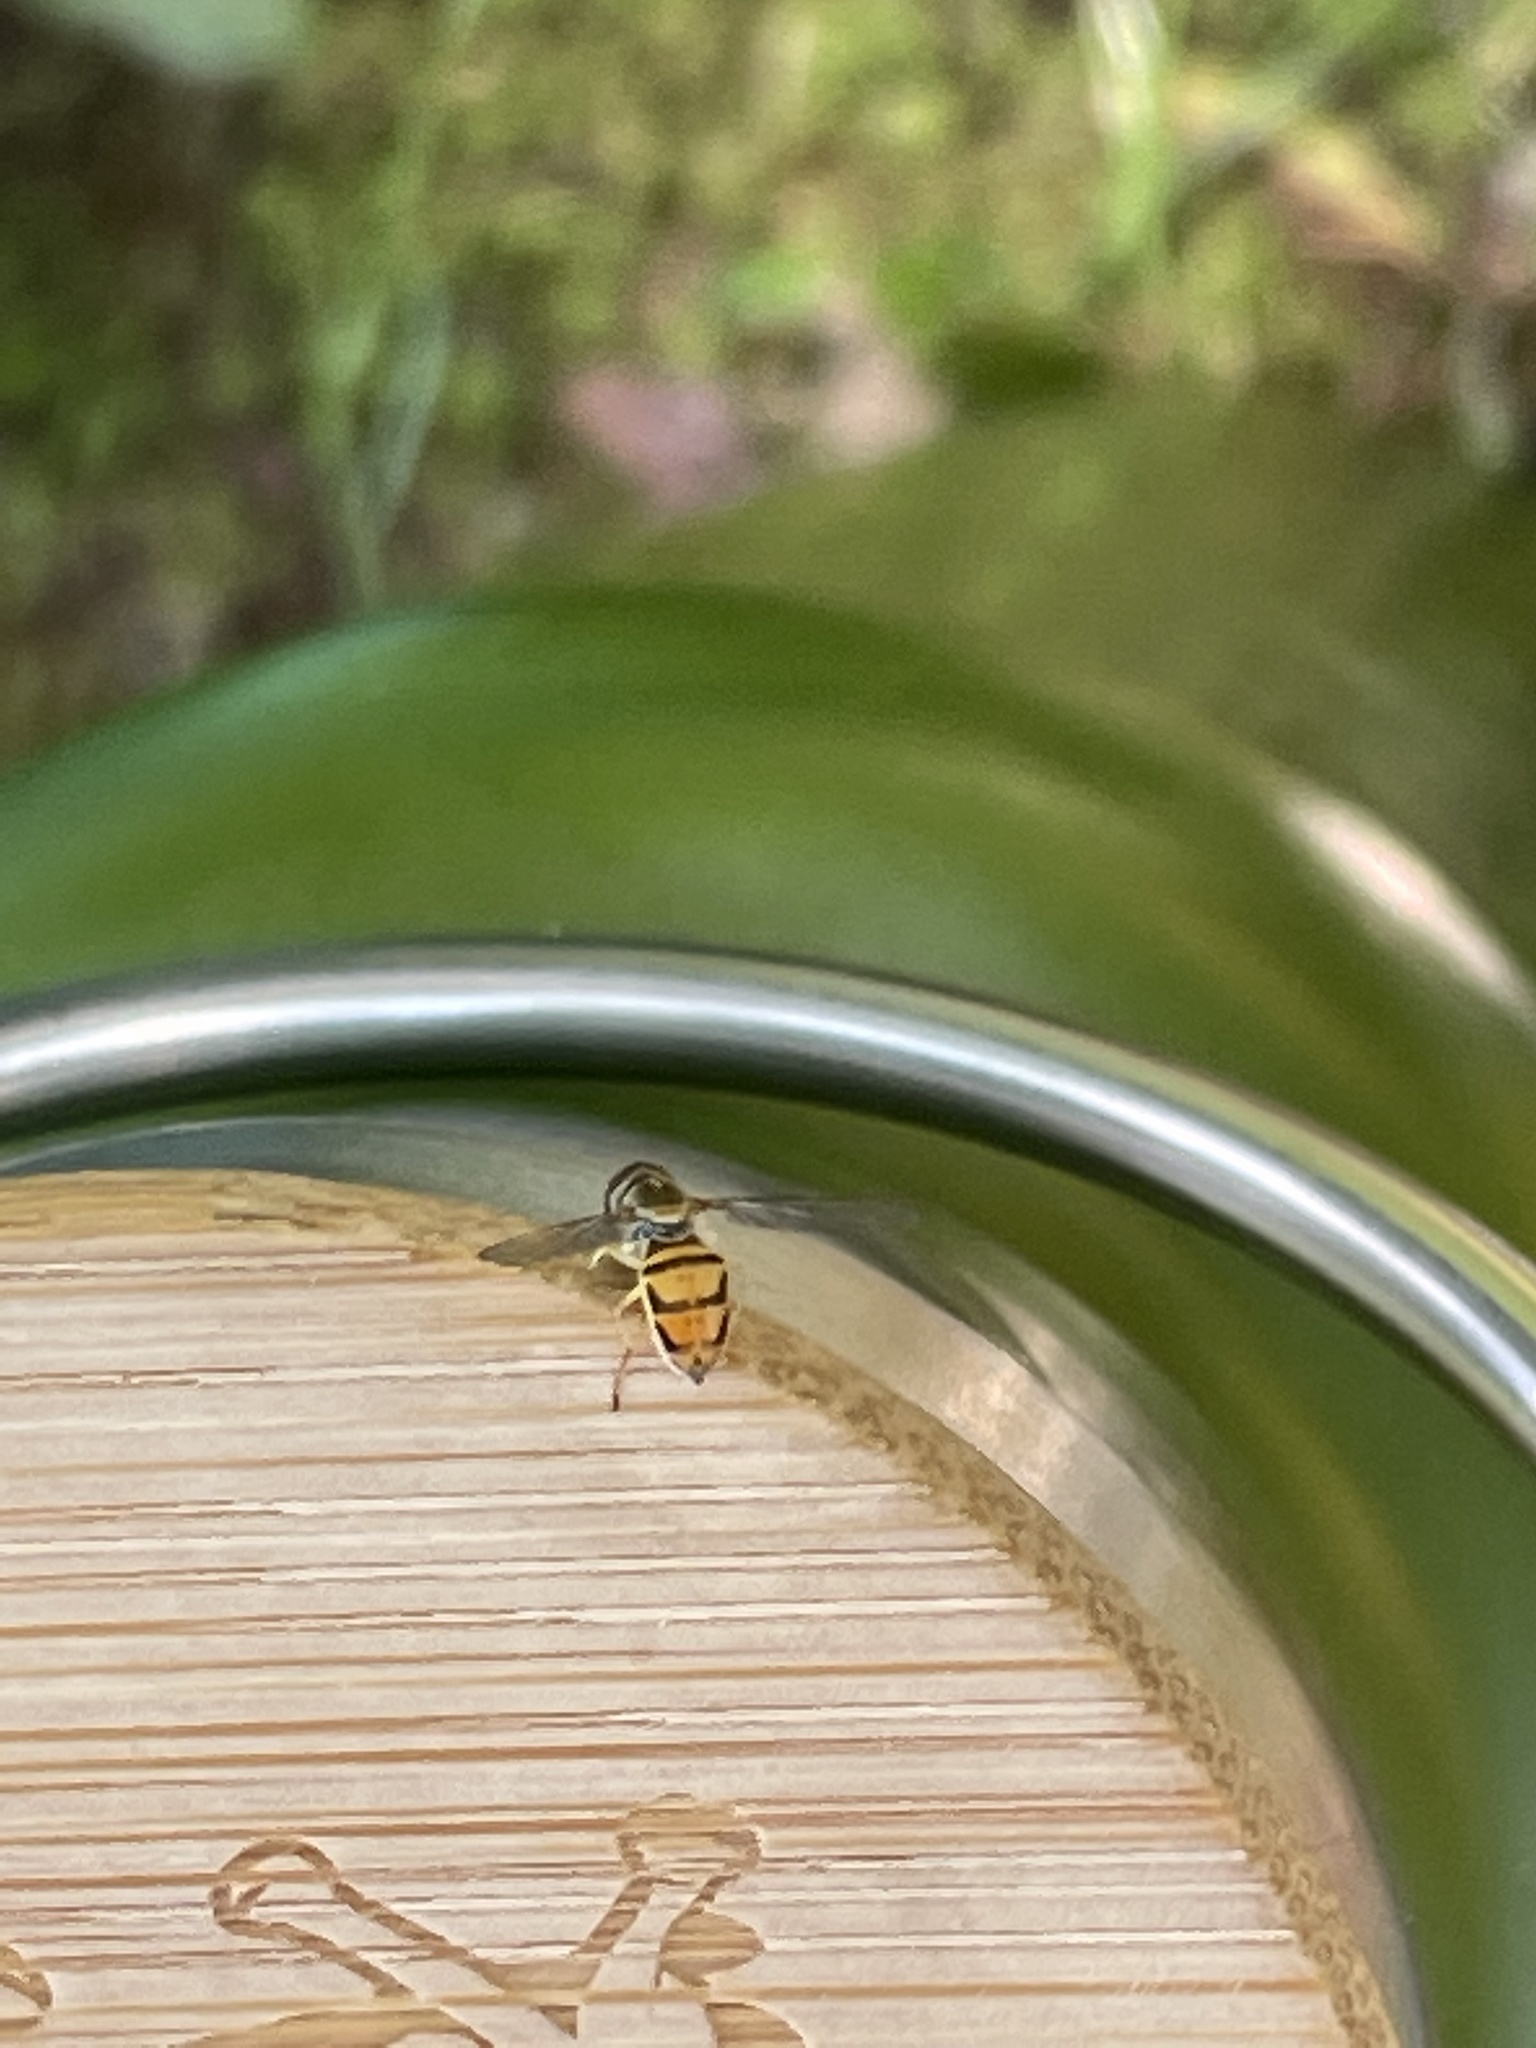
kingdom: Animalia
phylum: Arthropoda
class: Insecta
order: Diptera
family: Syrphidae
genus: Toxomerus
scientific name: Toxomerus marginatus
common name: Syrphid fly
